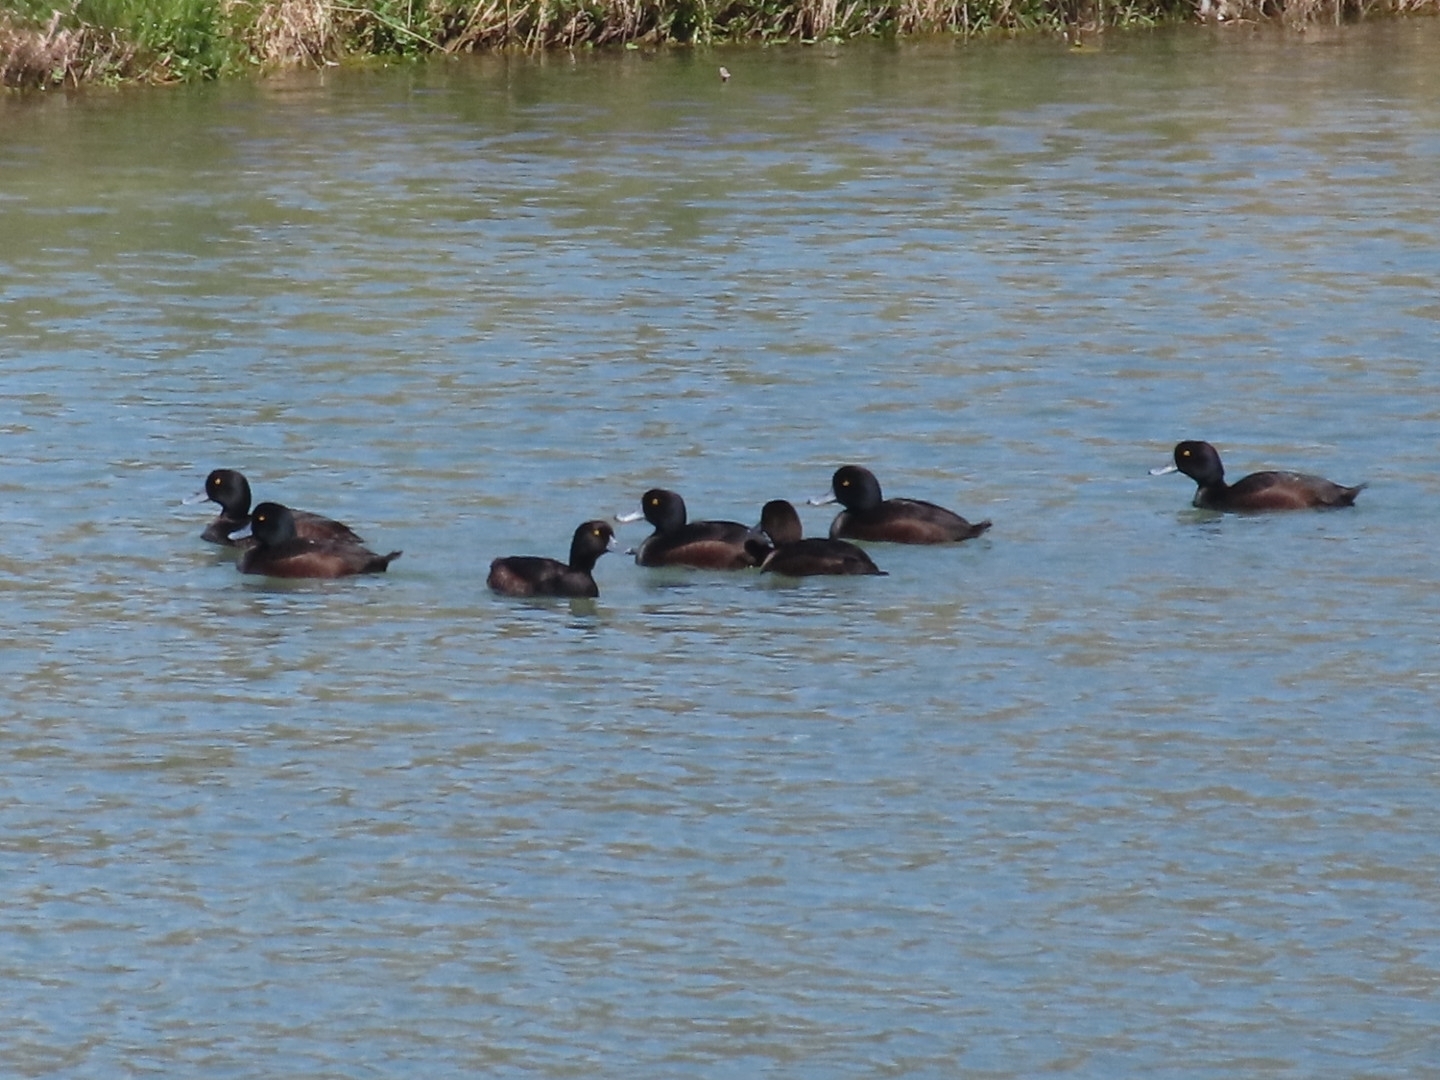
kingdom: Animalia
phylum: Chordata
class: Aves
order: Anseriformes
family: Anatidae
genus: Aythya
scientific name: Aythya novaeseelandiae
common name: New zealand scaup
